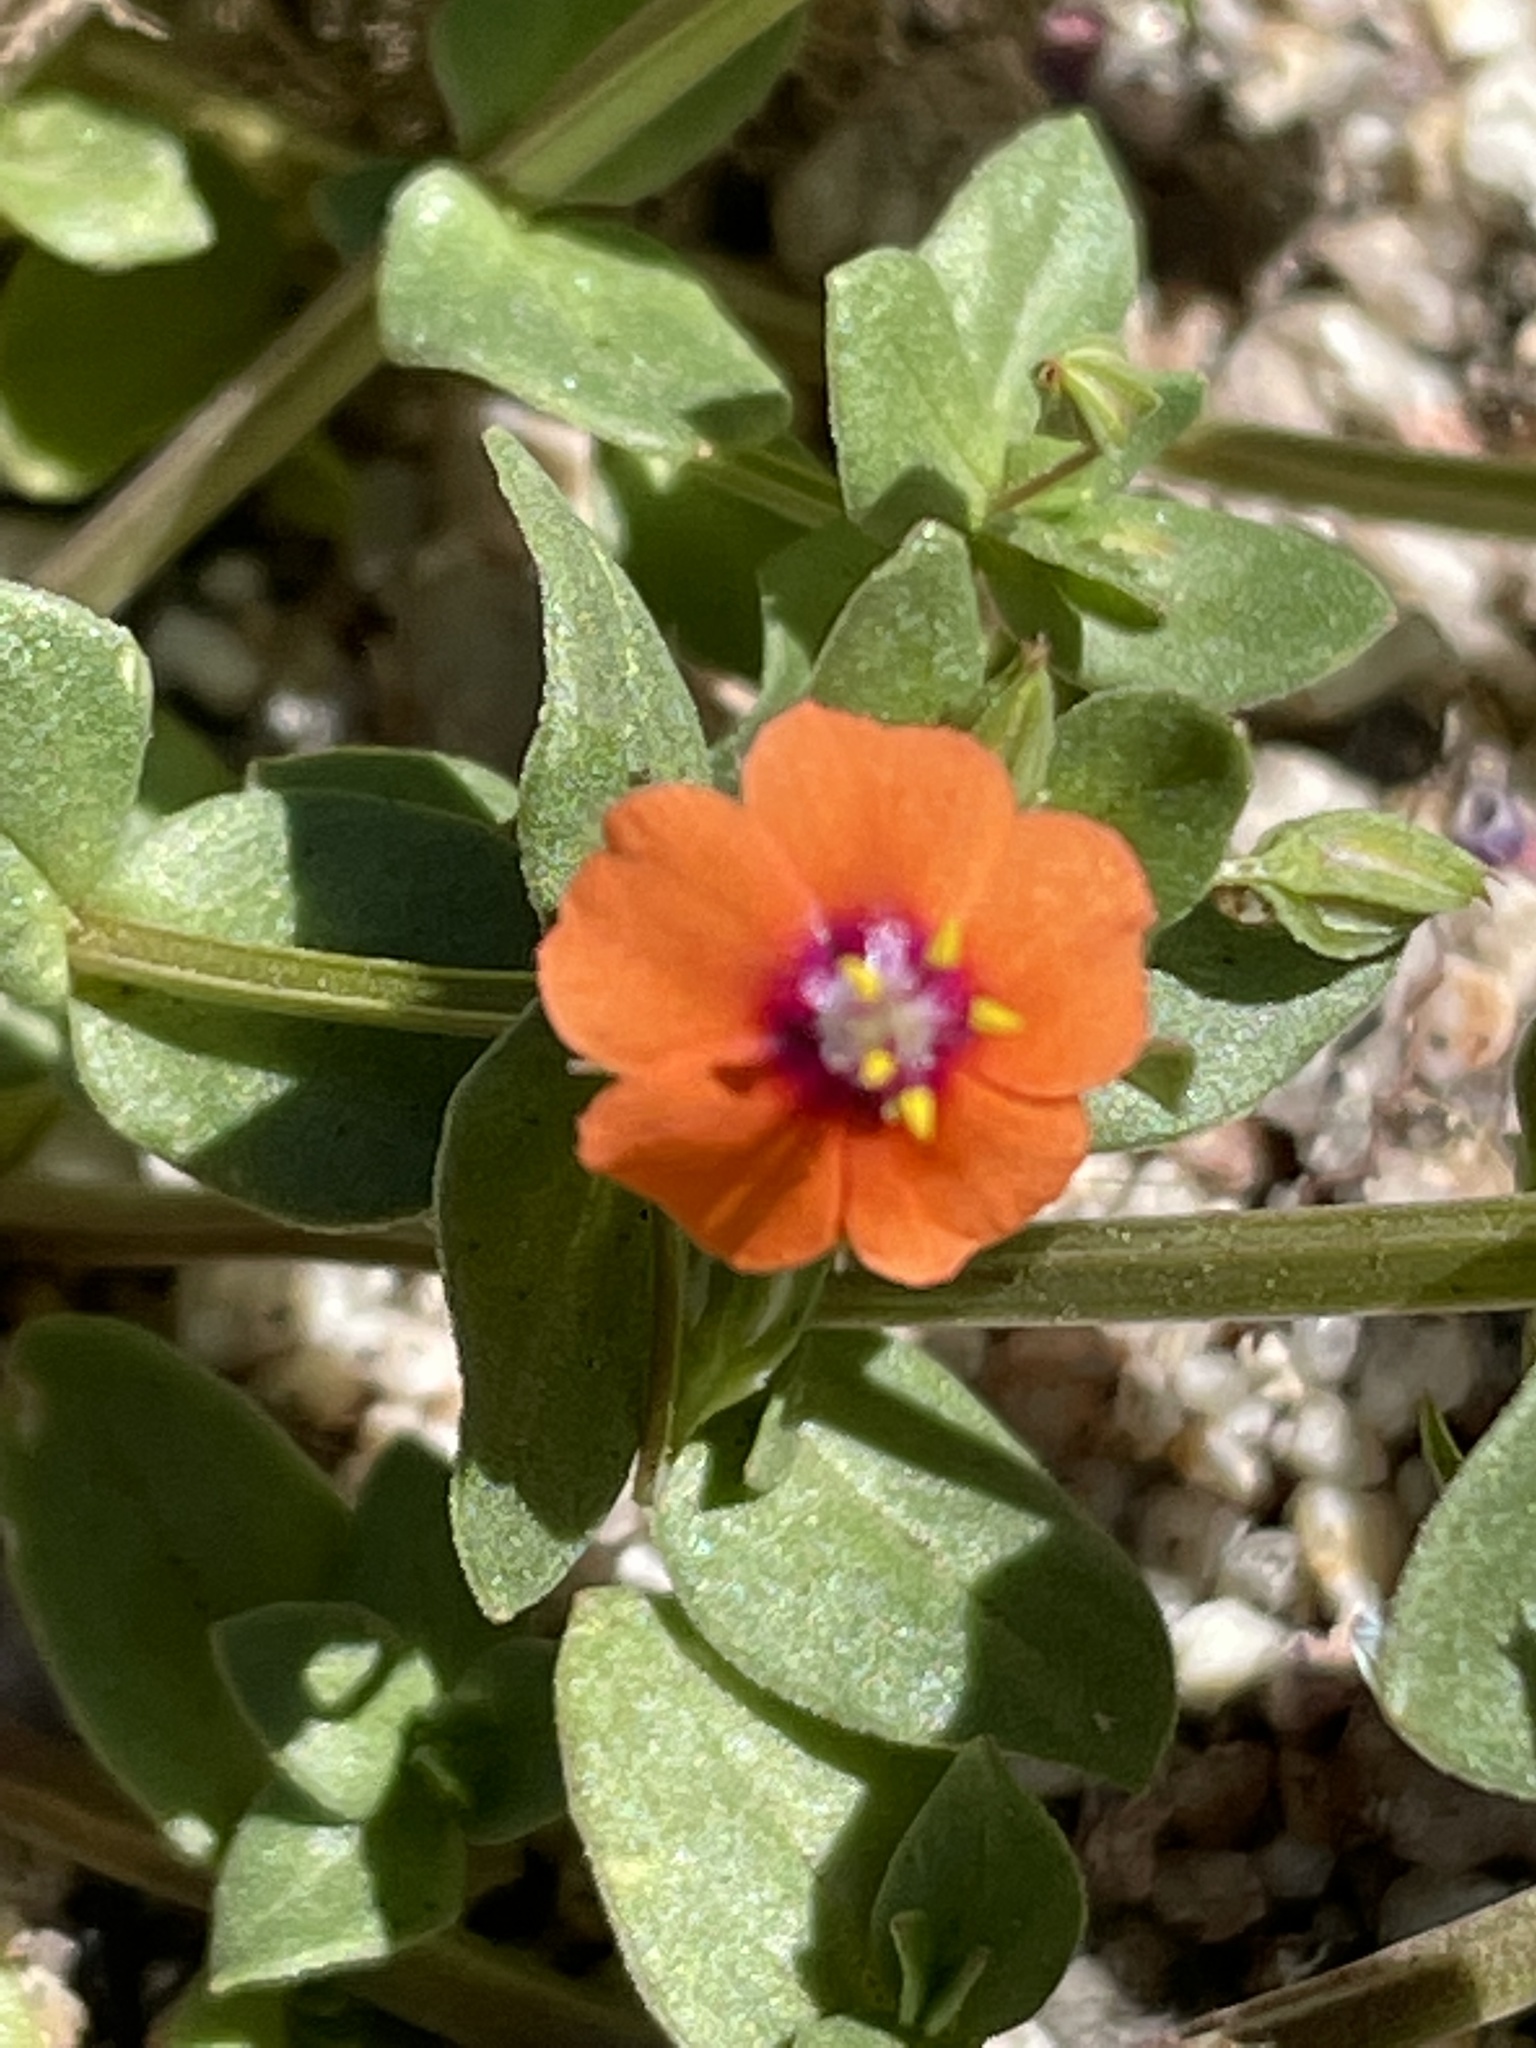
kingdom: Plantae
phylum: Tracheophyta
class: Magnoliopsida
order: Ericales
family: Primulaceae
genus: Lysimachia
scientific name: Lysimachia arvensis
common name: Scarlet pimpernel
